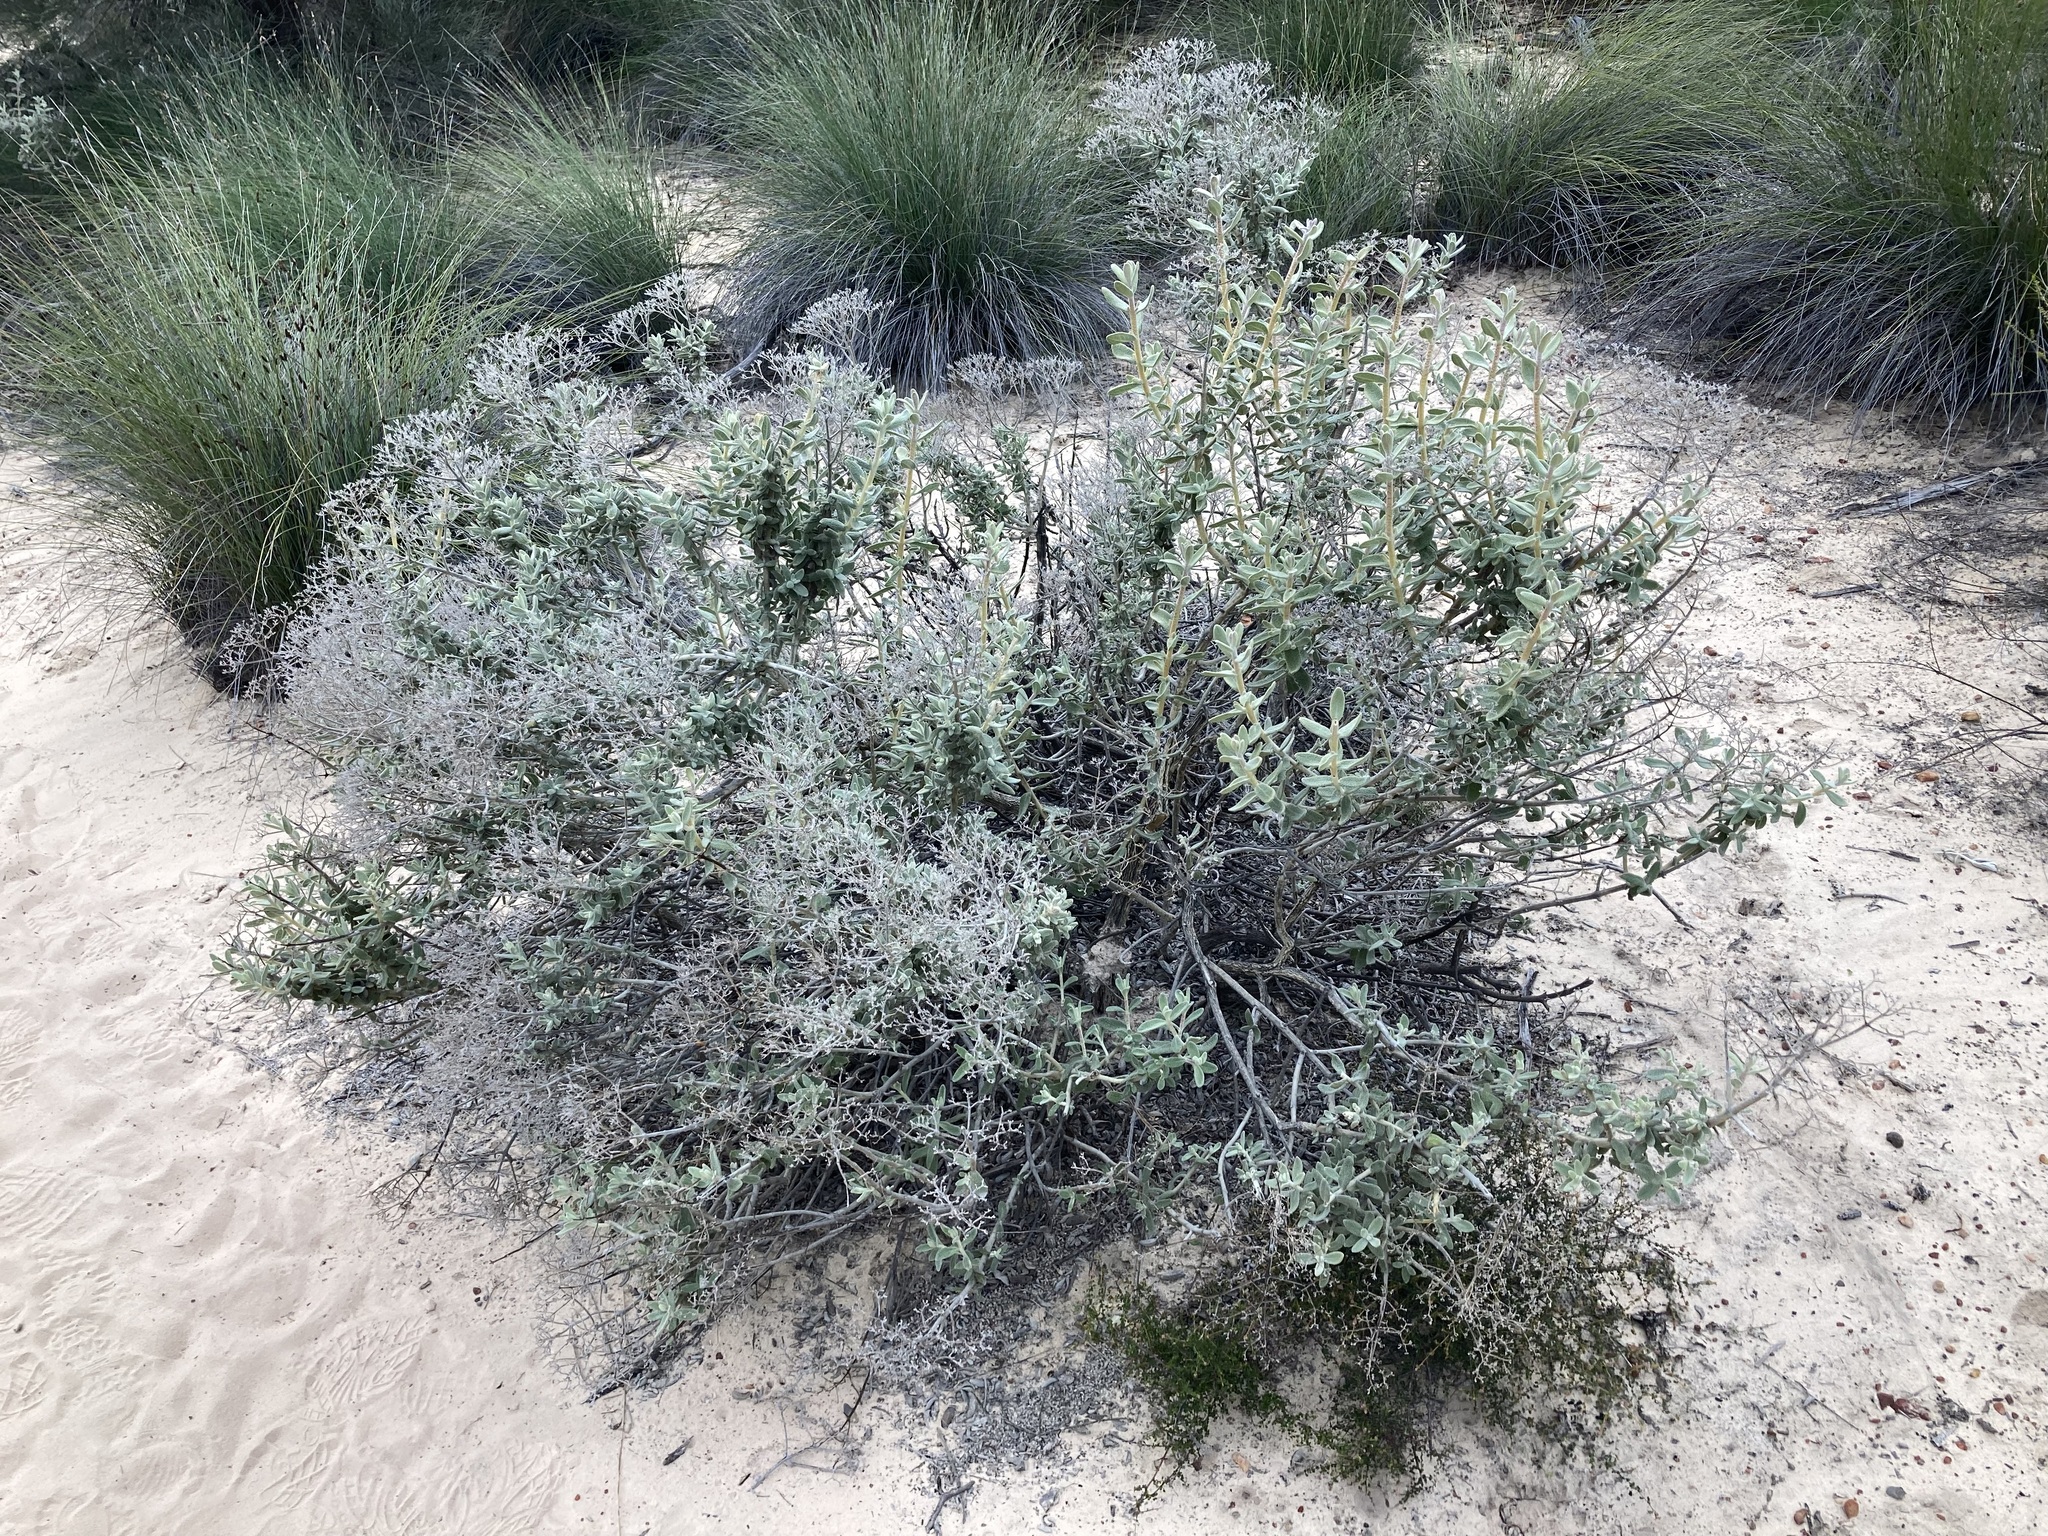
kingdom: Plantae
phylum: Tracheophyta
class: Magnoliopsida
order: Lamiales
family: Lamiaceae
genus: Dicrastylis
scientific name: Dicrastylis fulva
